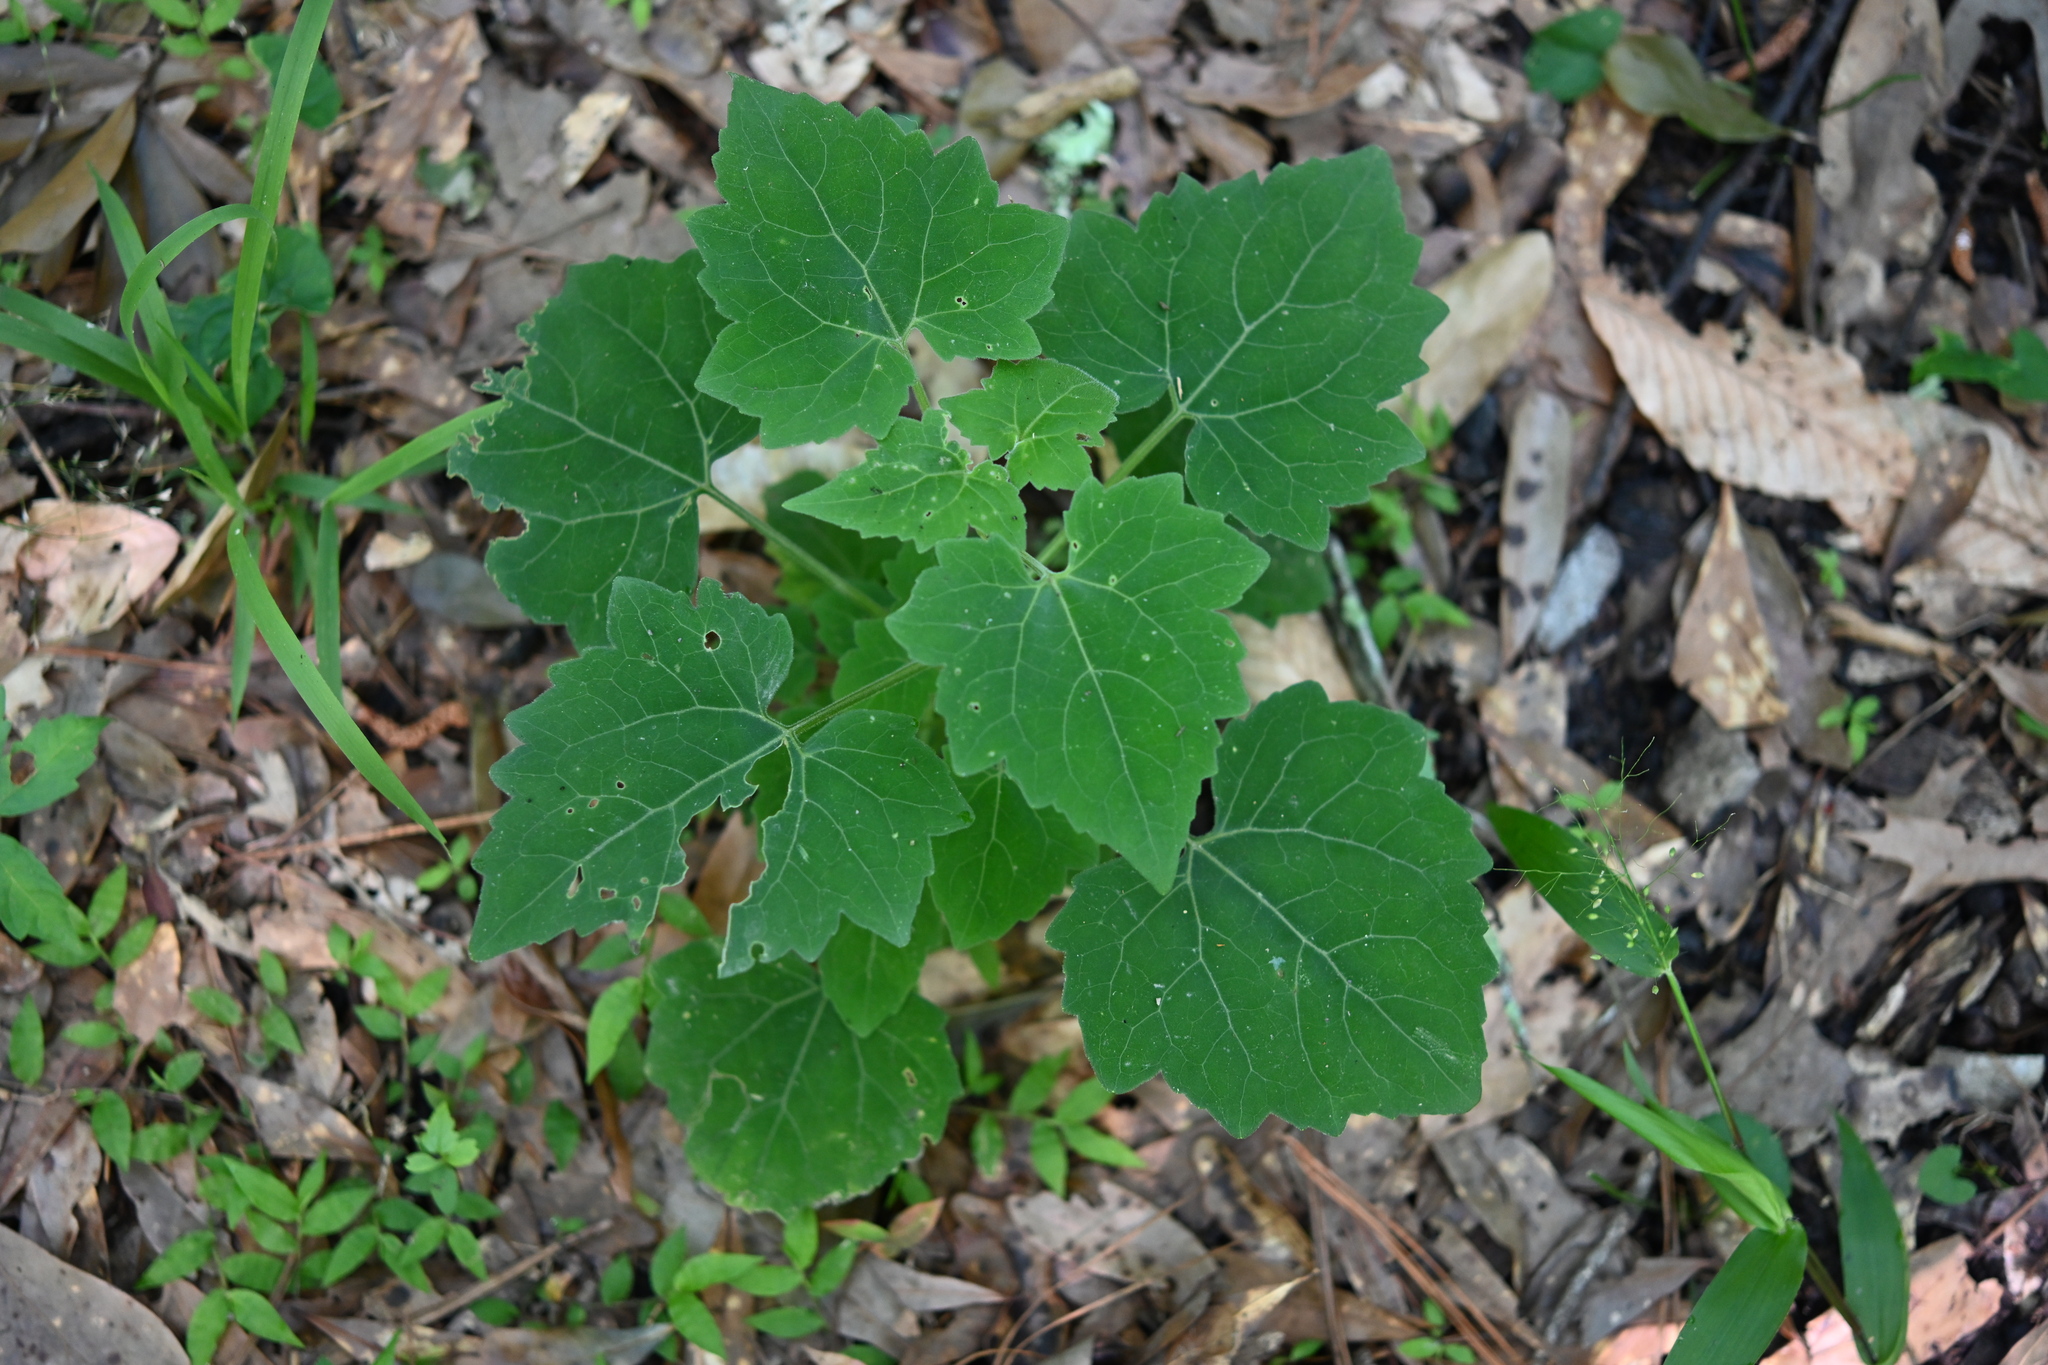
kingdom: Plantae
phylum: Tracheophyta
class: Magnoliopsida
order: Asterales
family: Asteraceae
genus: Mikania
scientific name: Mikania cordifolia
